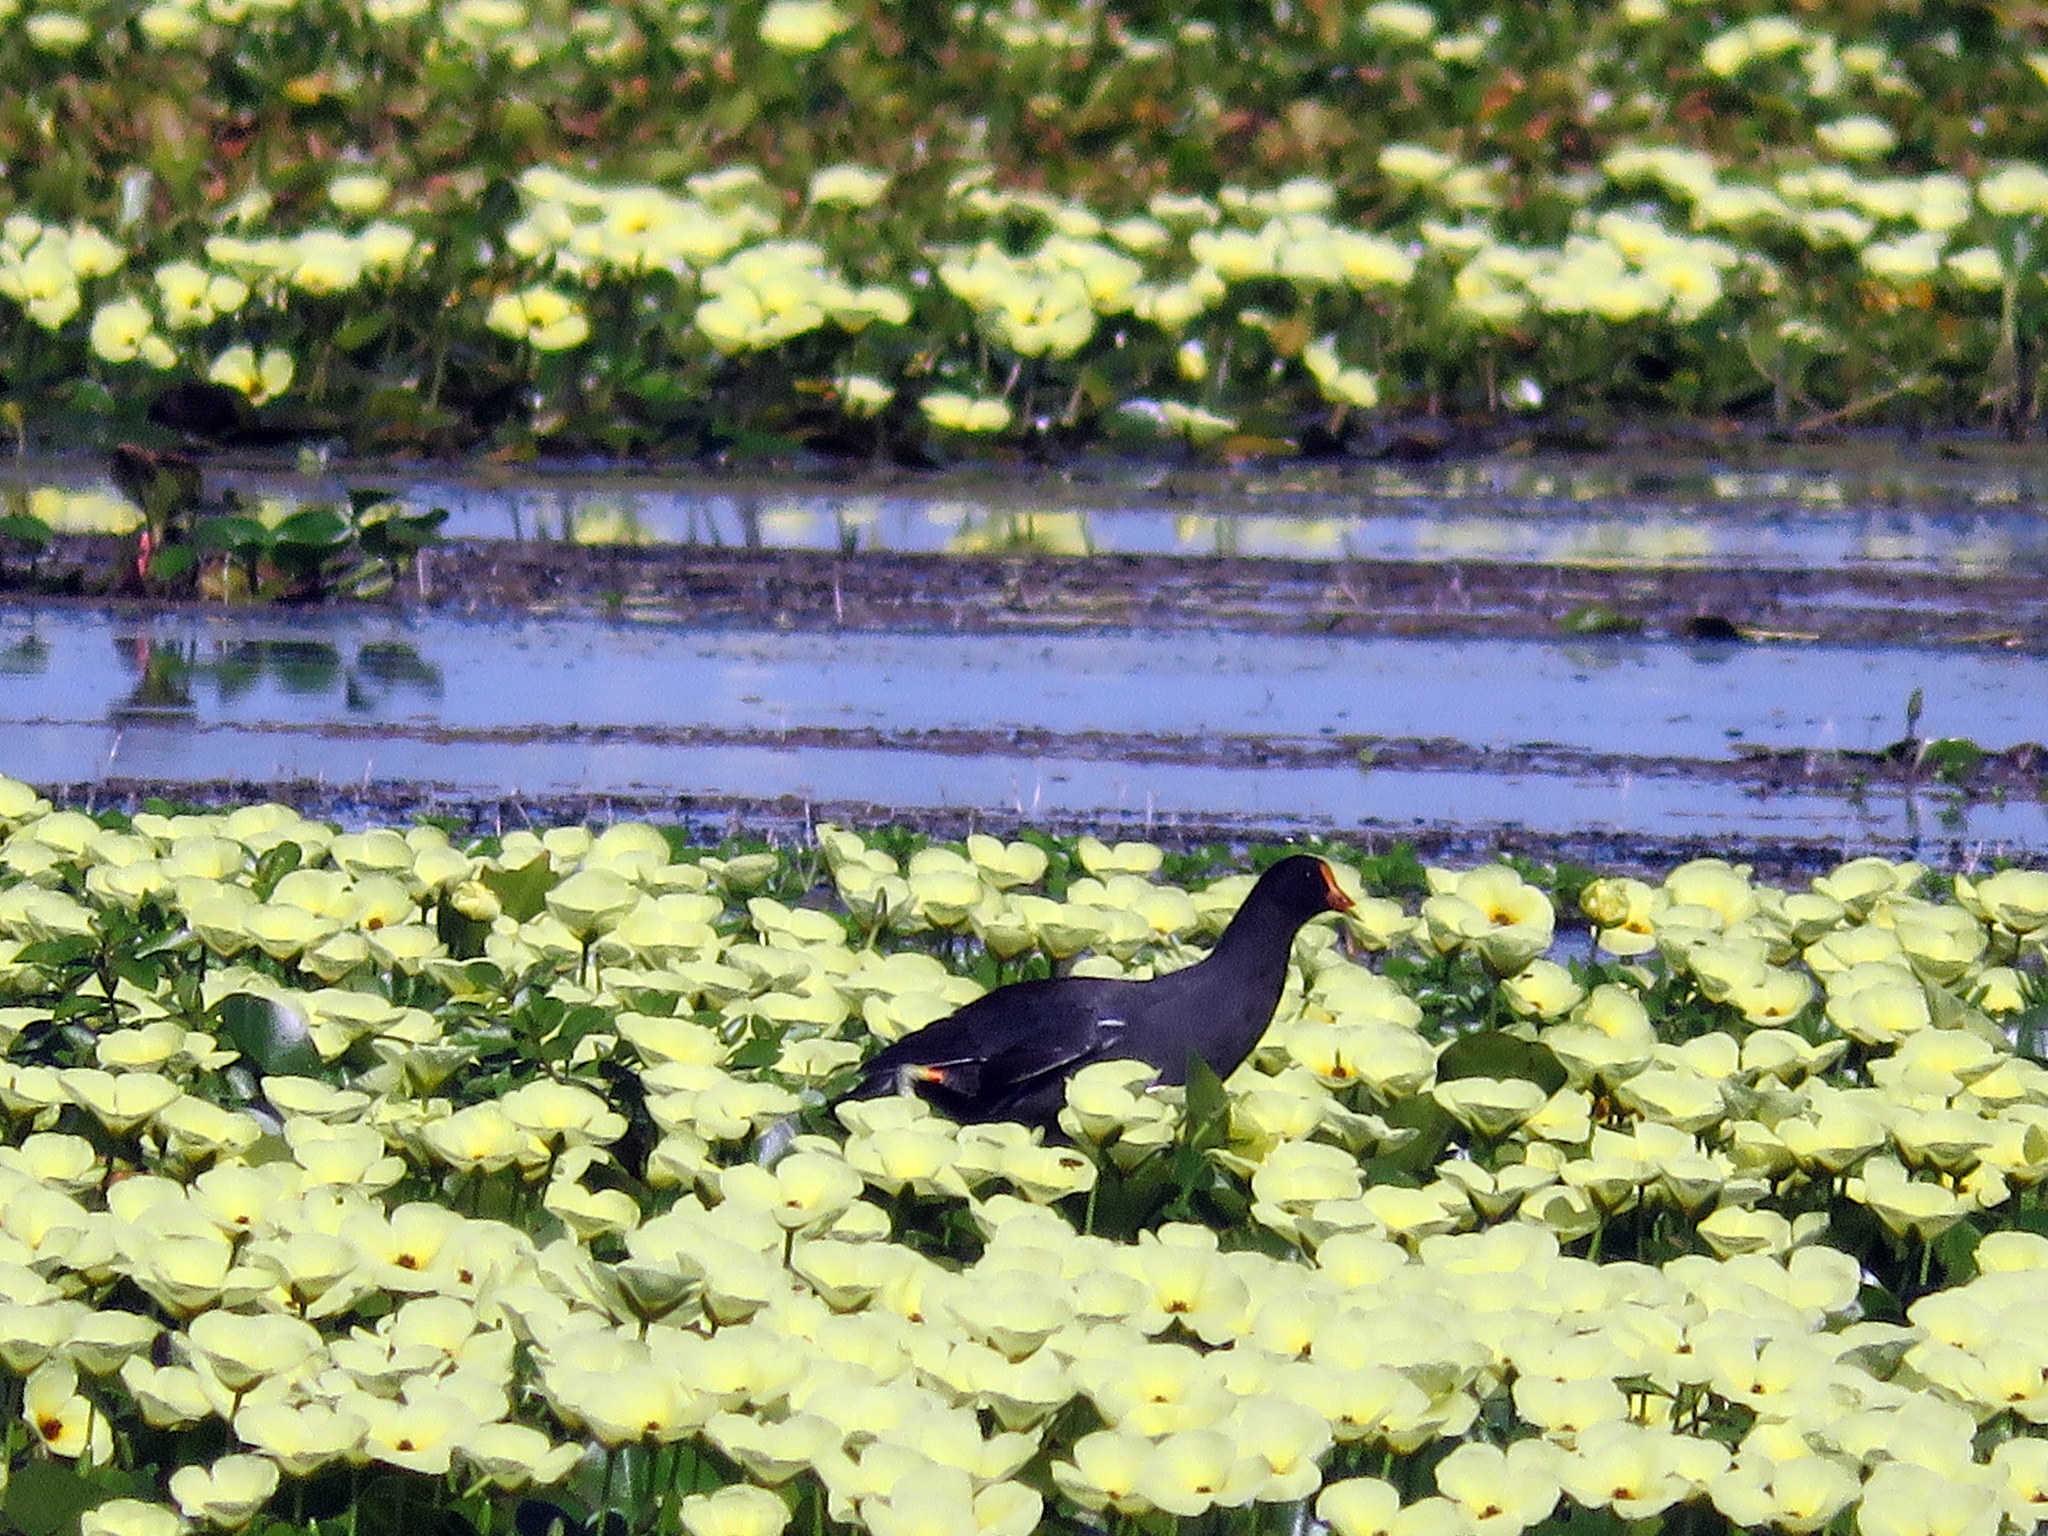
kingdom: Animalia
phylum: Chordata
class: Aves
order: Gruiformes
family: Rallidae
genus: Gallinula
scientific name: Gallinula chloropus
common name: Common moorhen
